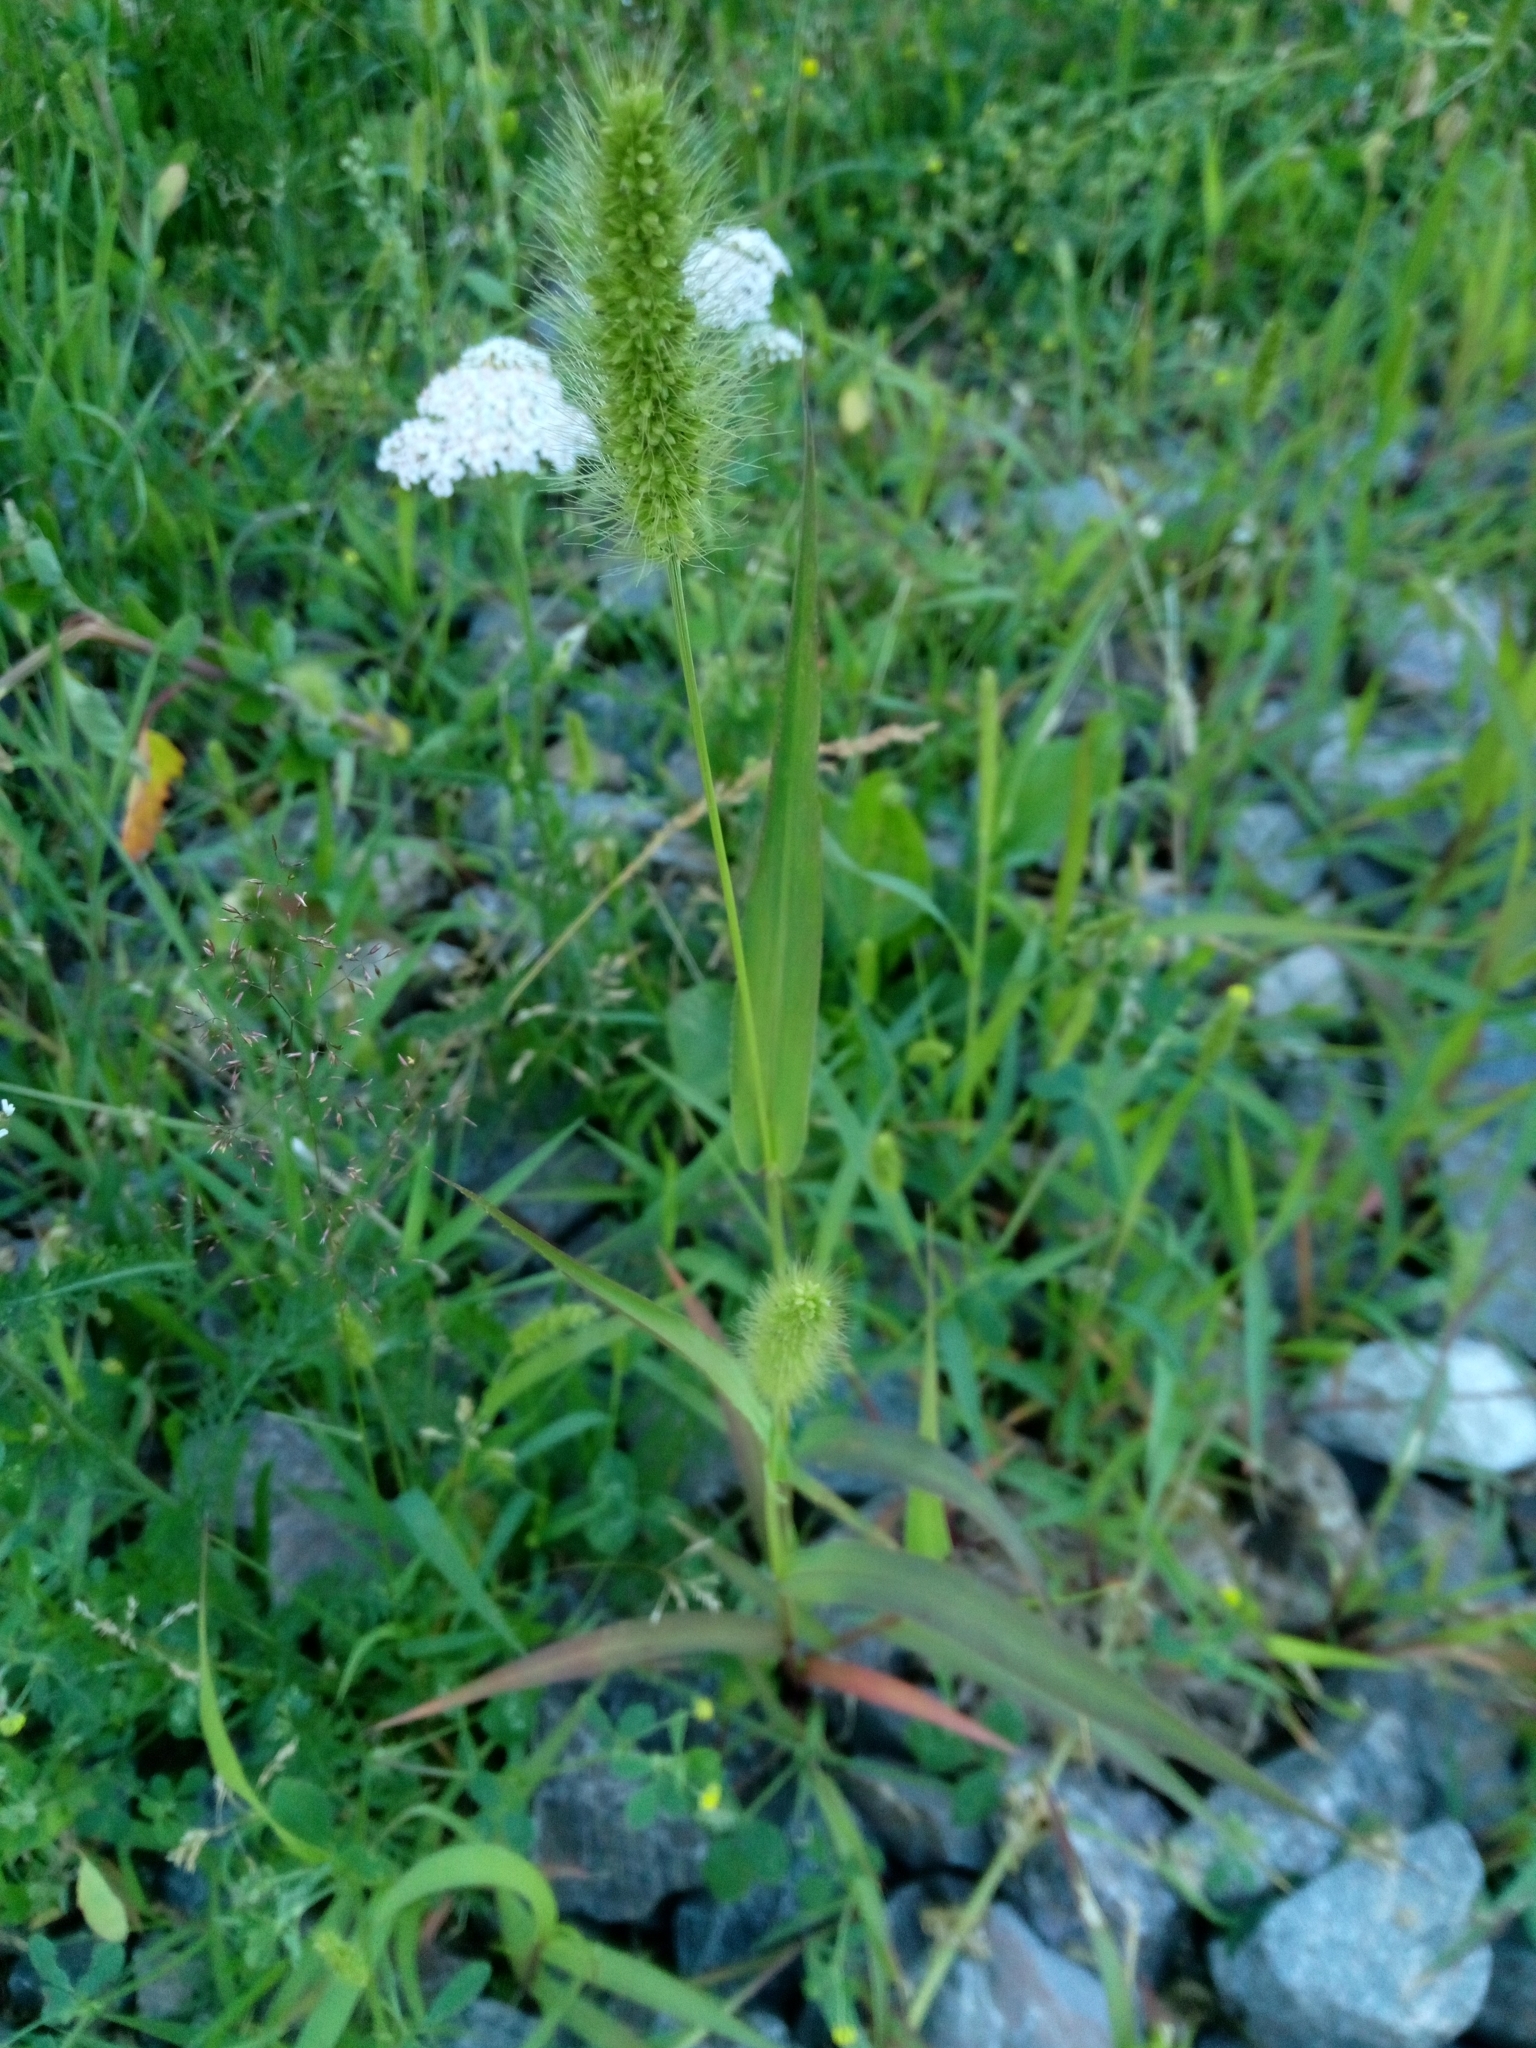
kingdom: Plantae
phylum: Tracheophyta
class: Liliopsida
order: Poales
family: Poaceae
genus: Setaria
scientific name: Setaria viridis
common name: Green bristlegrass
